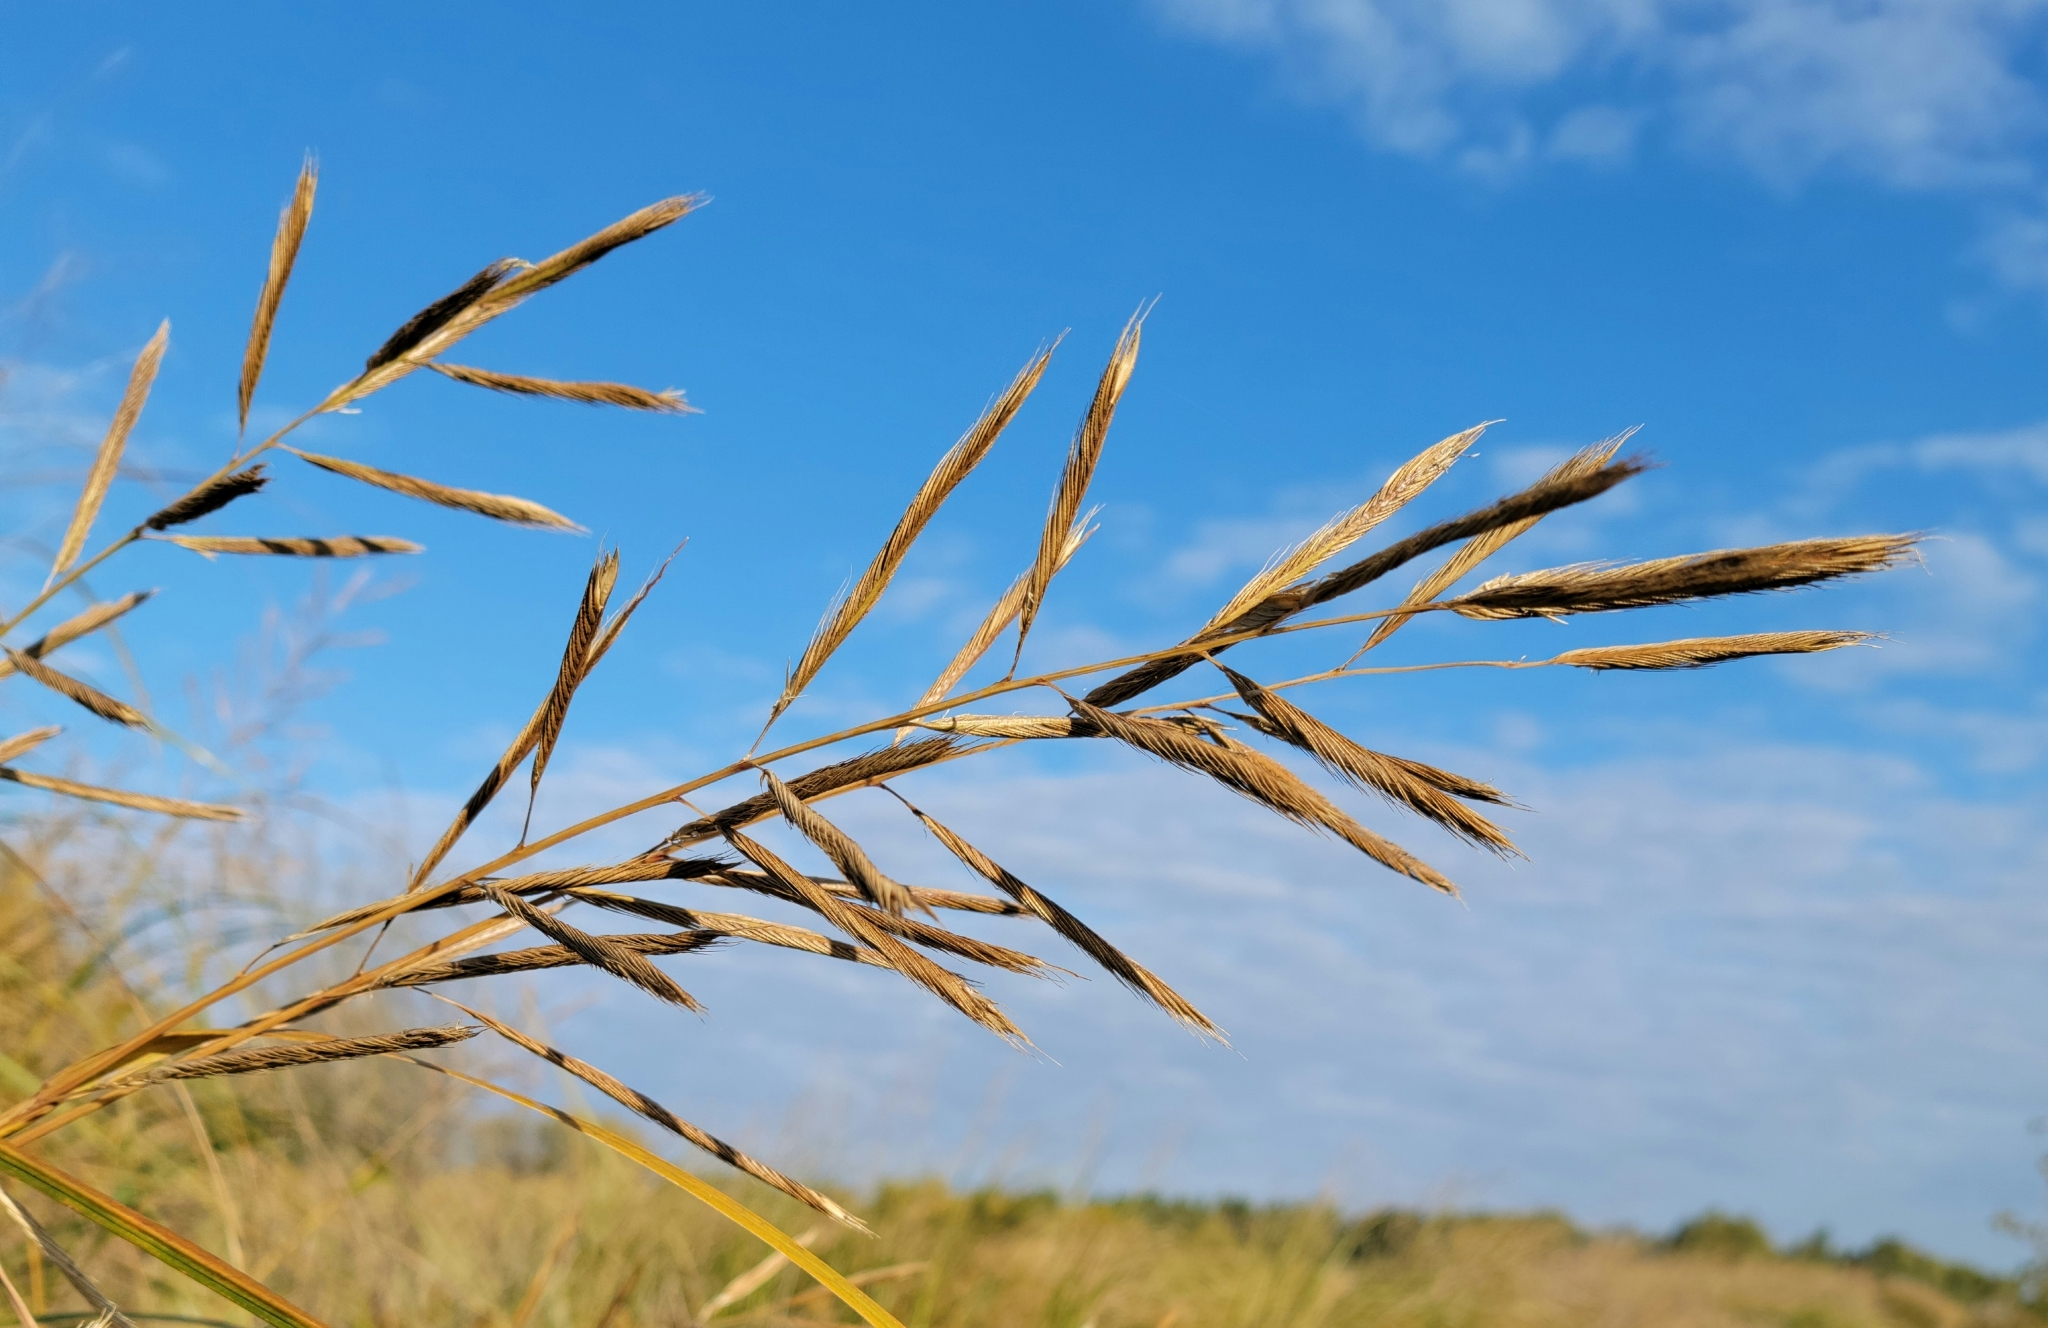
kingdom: Plantae
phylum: Tracheophyta
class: Liliopsida
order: Poales
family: Poaceae
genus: Sporobolus
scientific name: Sporobolus michauxianus
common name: Freshwater cordgrass
